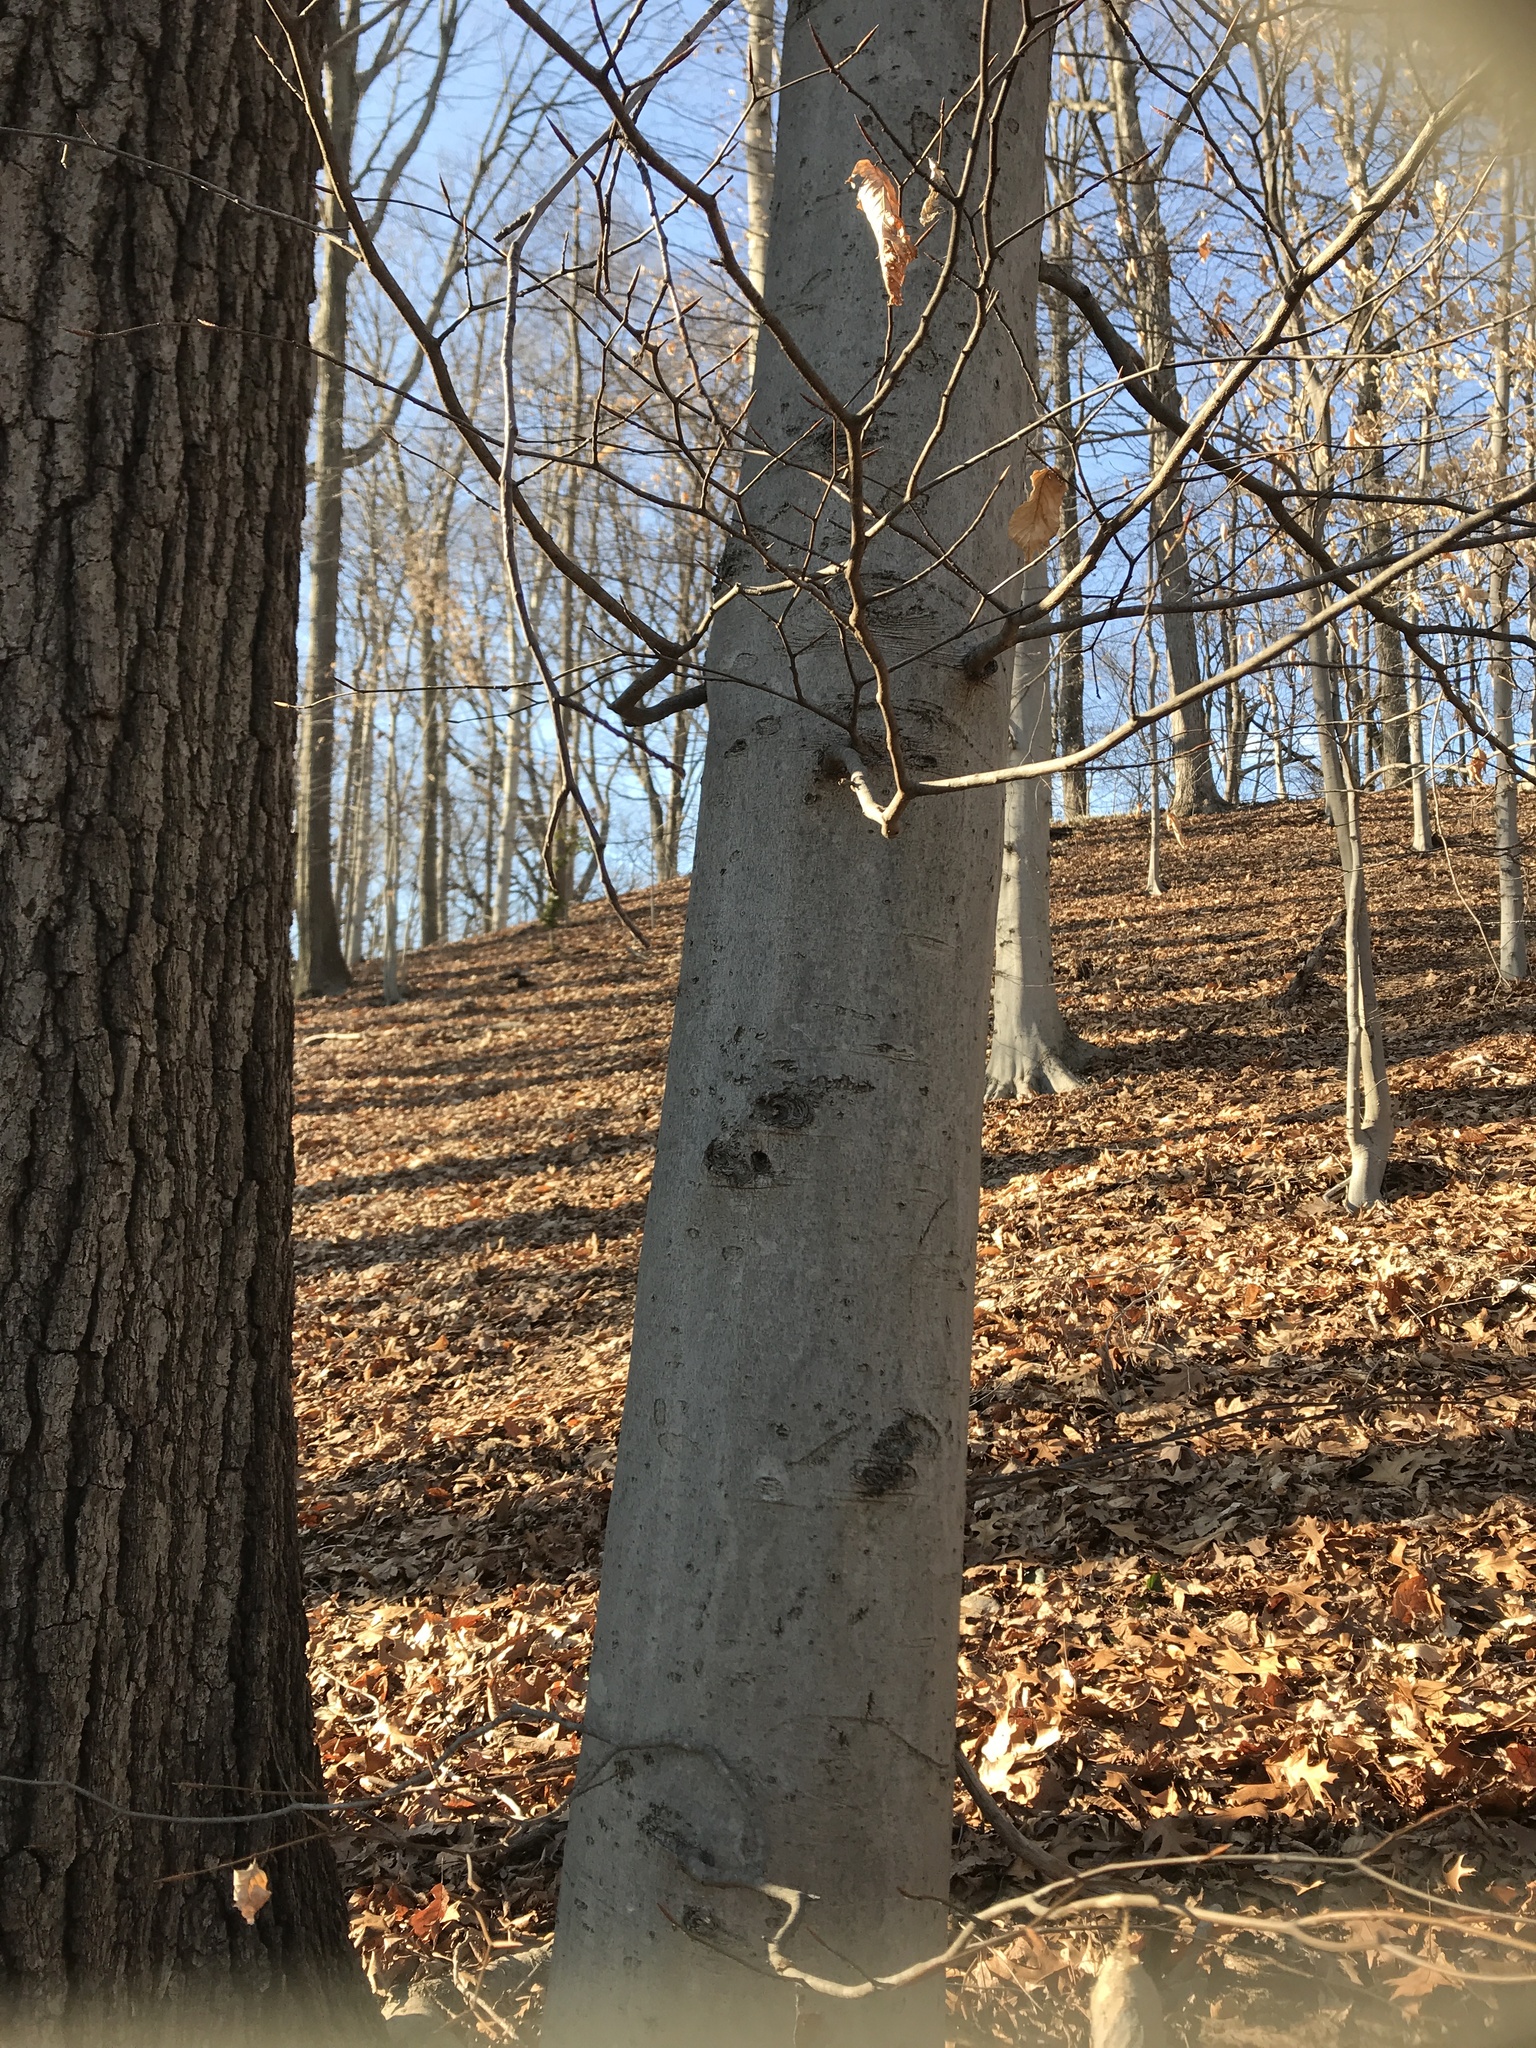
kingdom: Plantae
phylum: Tracheophyta
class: Magnoliopsida
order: Fagales
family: Fagaceae
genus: Fagus
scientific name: Fagus grandifolia
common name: American beech
